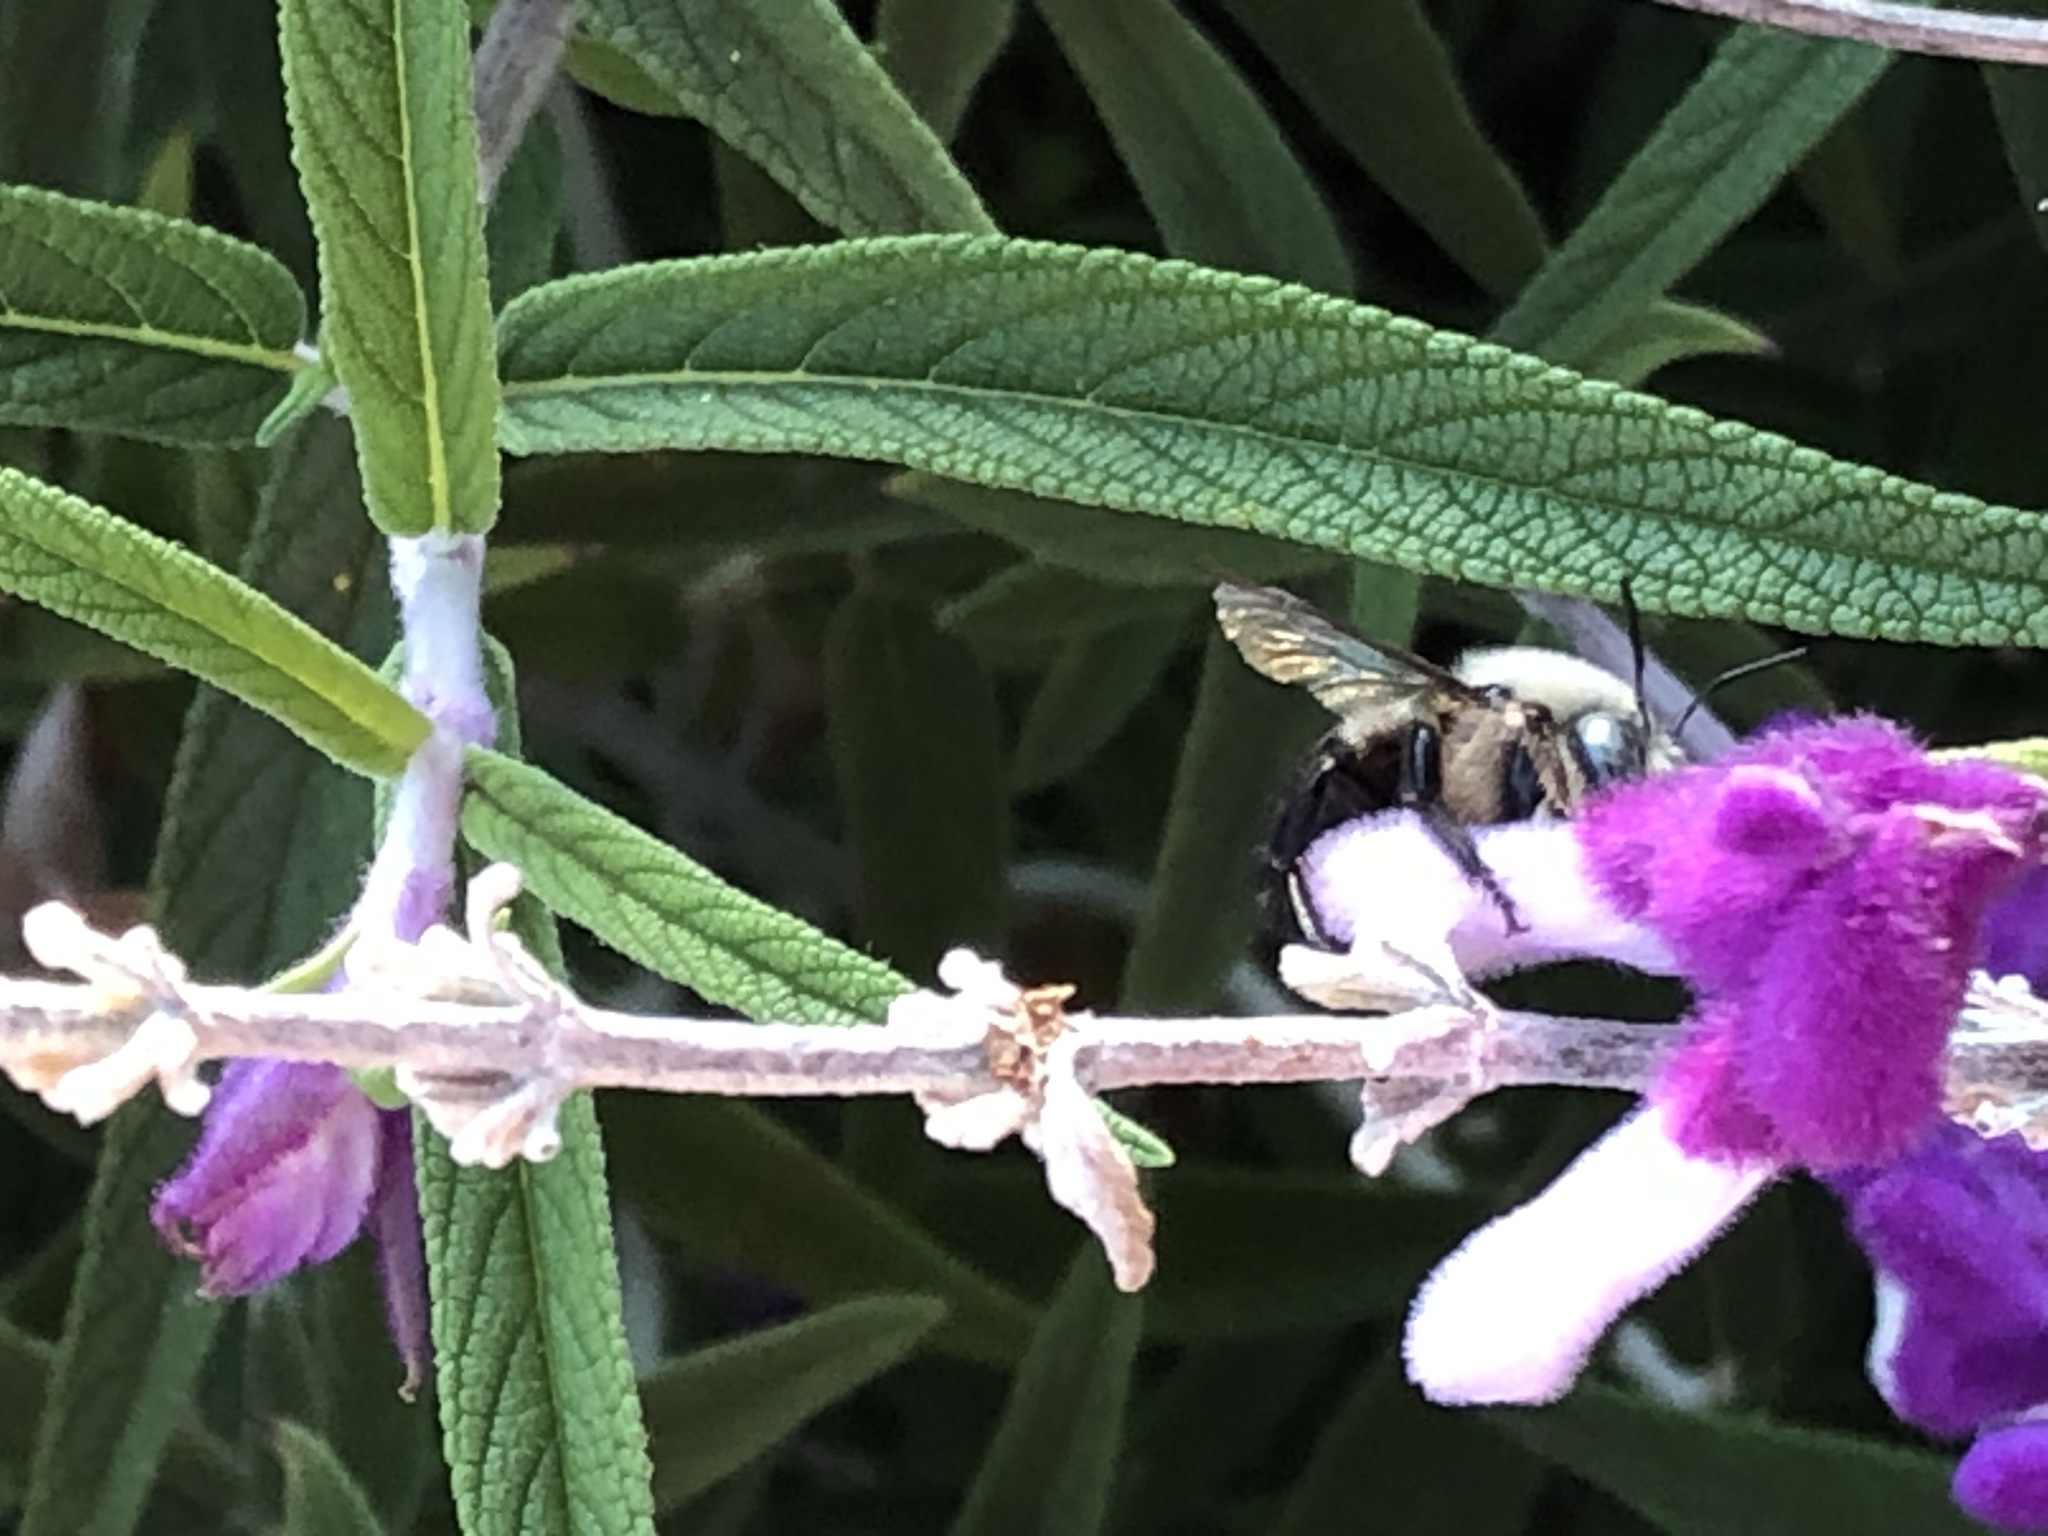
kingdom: Animalia
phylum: Arthropoda
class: Insecta
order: Hymenoptera
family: Apidae
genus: Xylocopa
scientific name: Xylocopa tabaniformis
